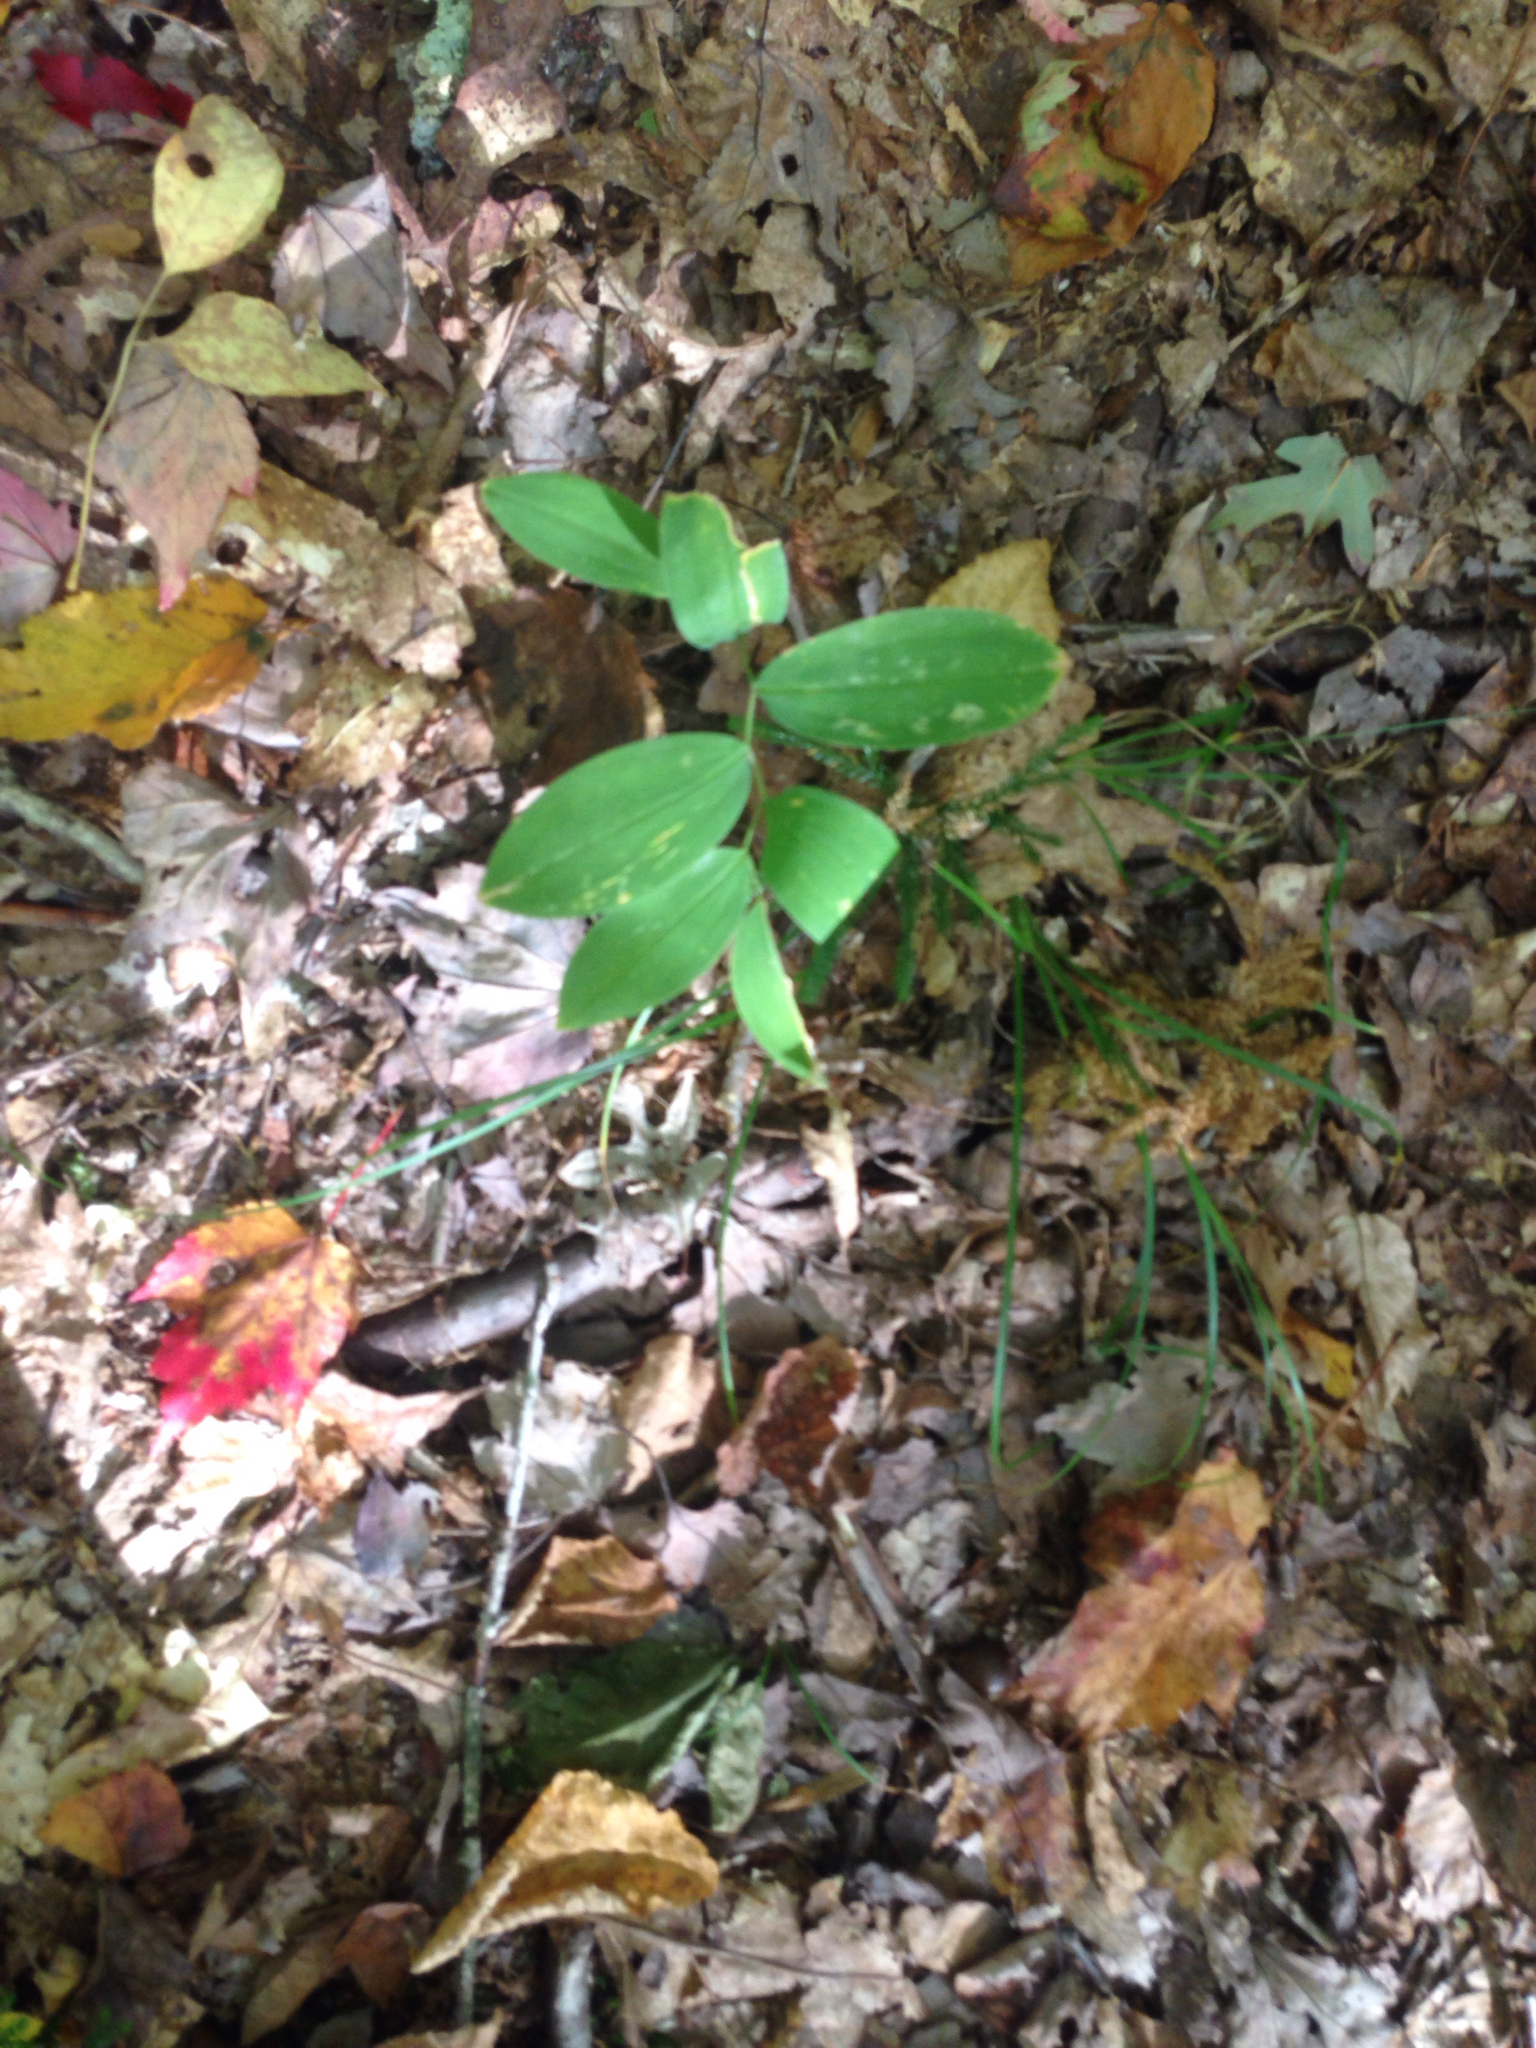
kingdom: Plantae
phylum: Tracheophyta
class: Liliopsida
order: Liliales
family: Colchicaceae
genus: Uvularia
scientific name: Uvularia sessilifolia
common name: Straw-lily
